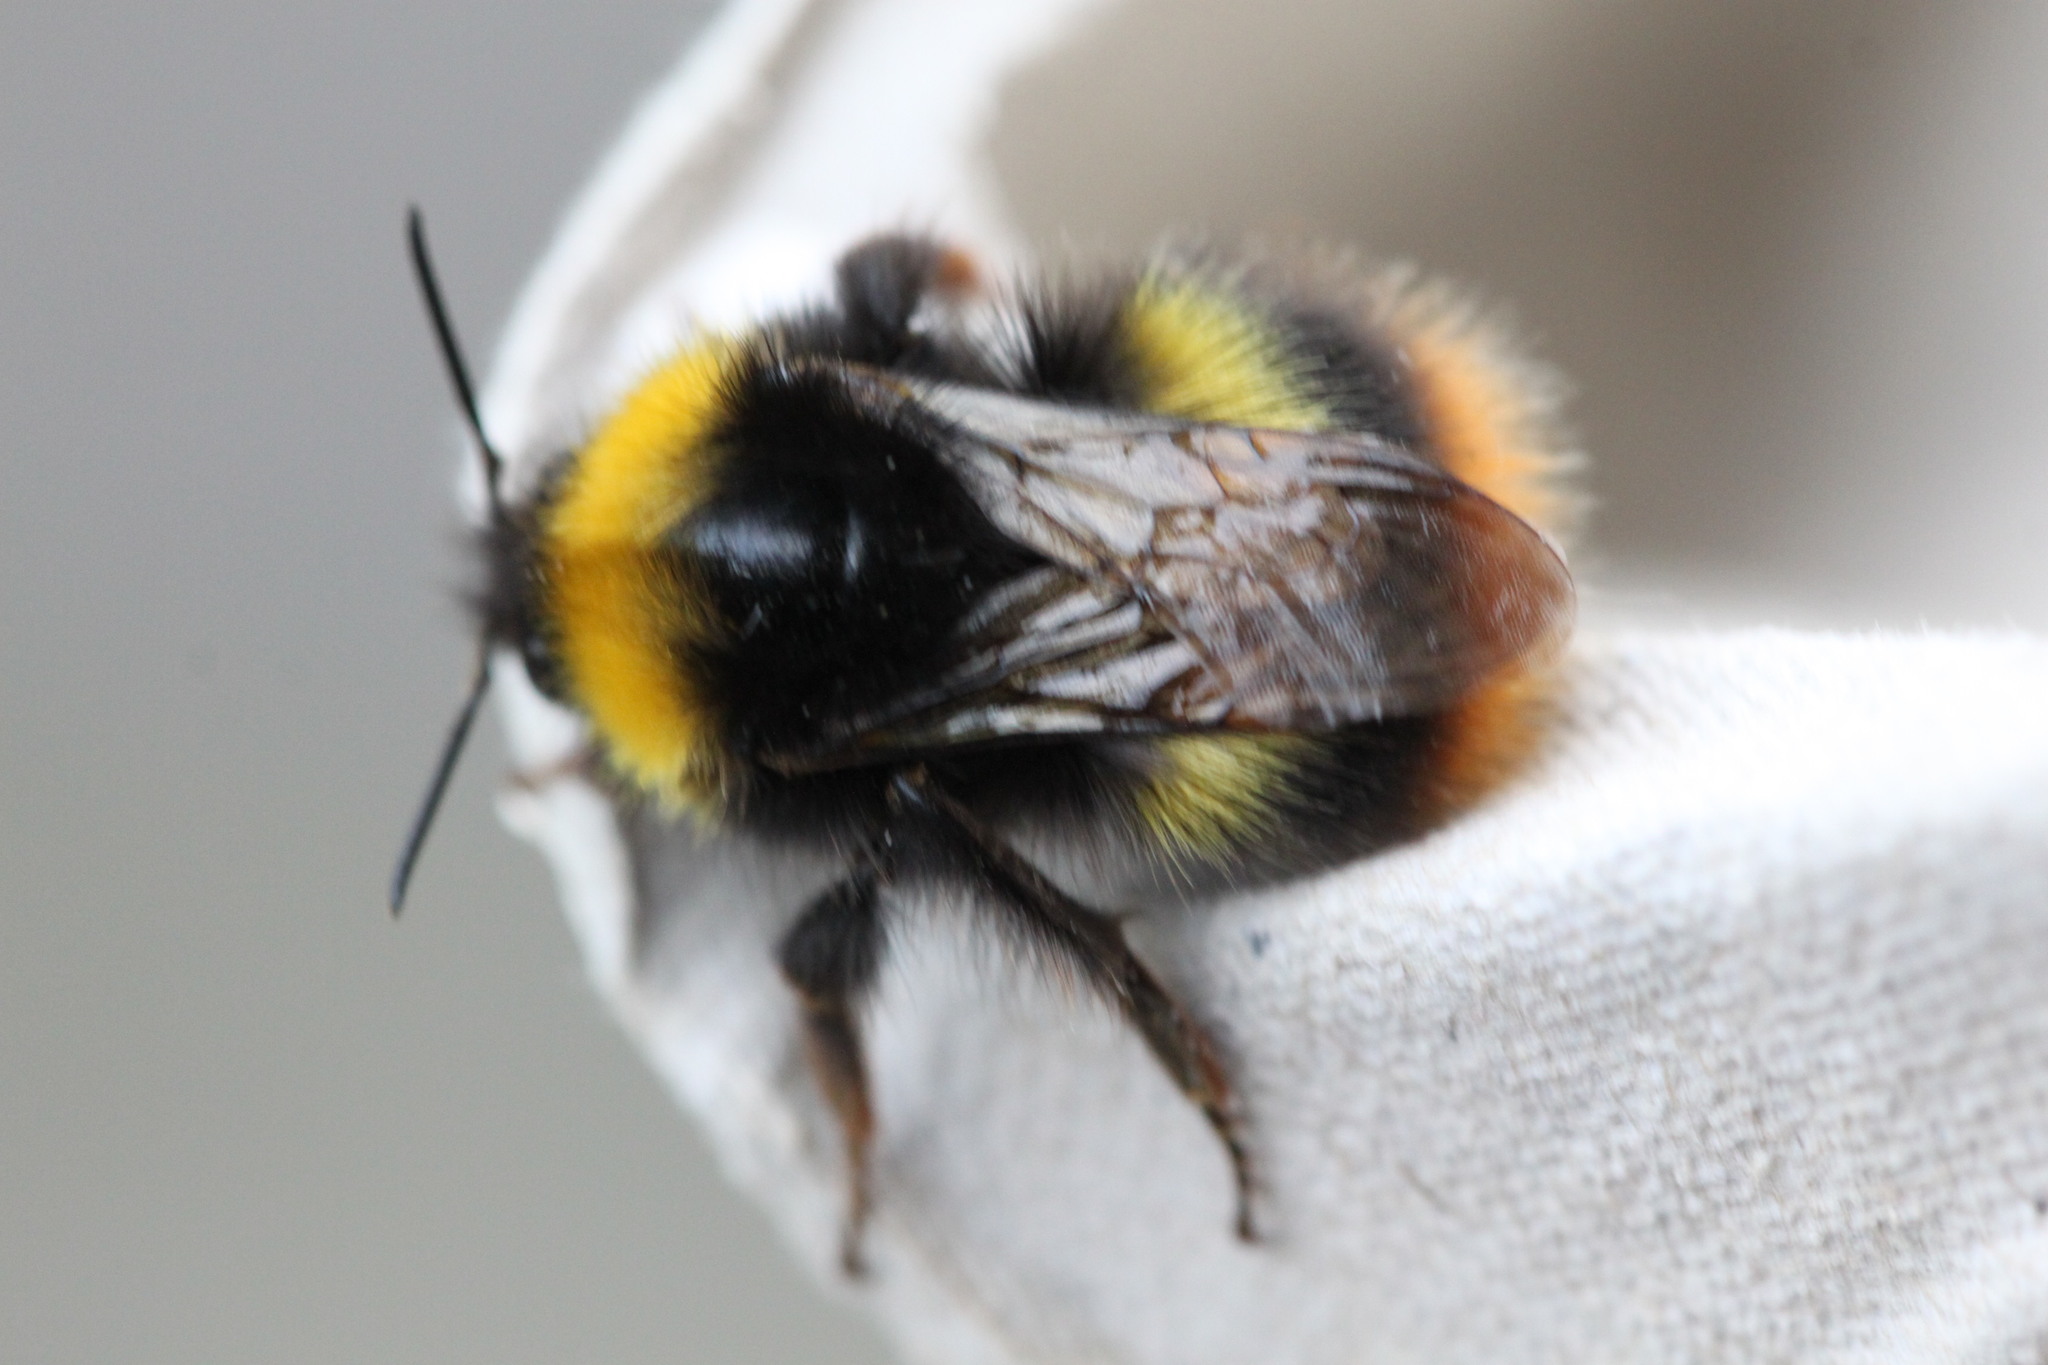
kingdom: Animalia
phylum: Arthropoda
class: Insecta
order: Hymenoptera
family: Apidae
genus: Bombus
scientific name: Bombus pratorum
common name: Early humble-bee
